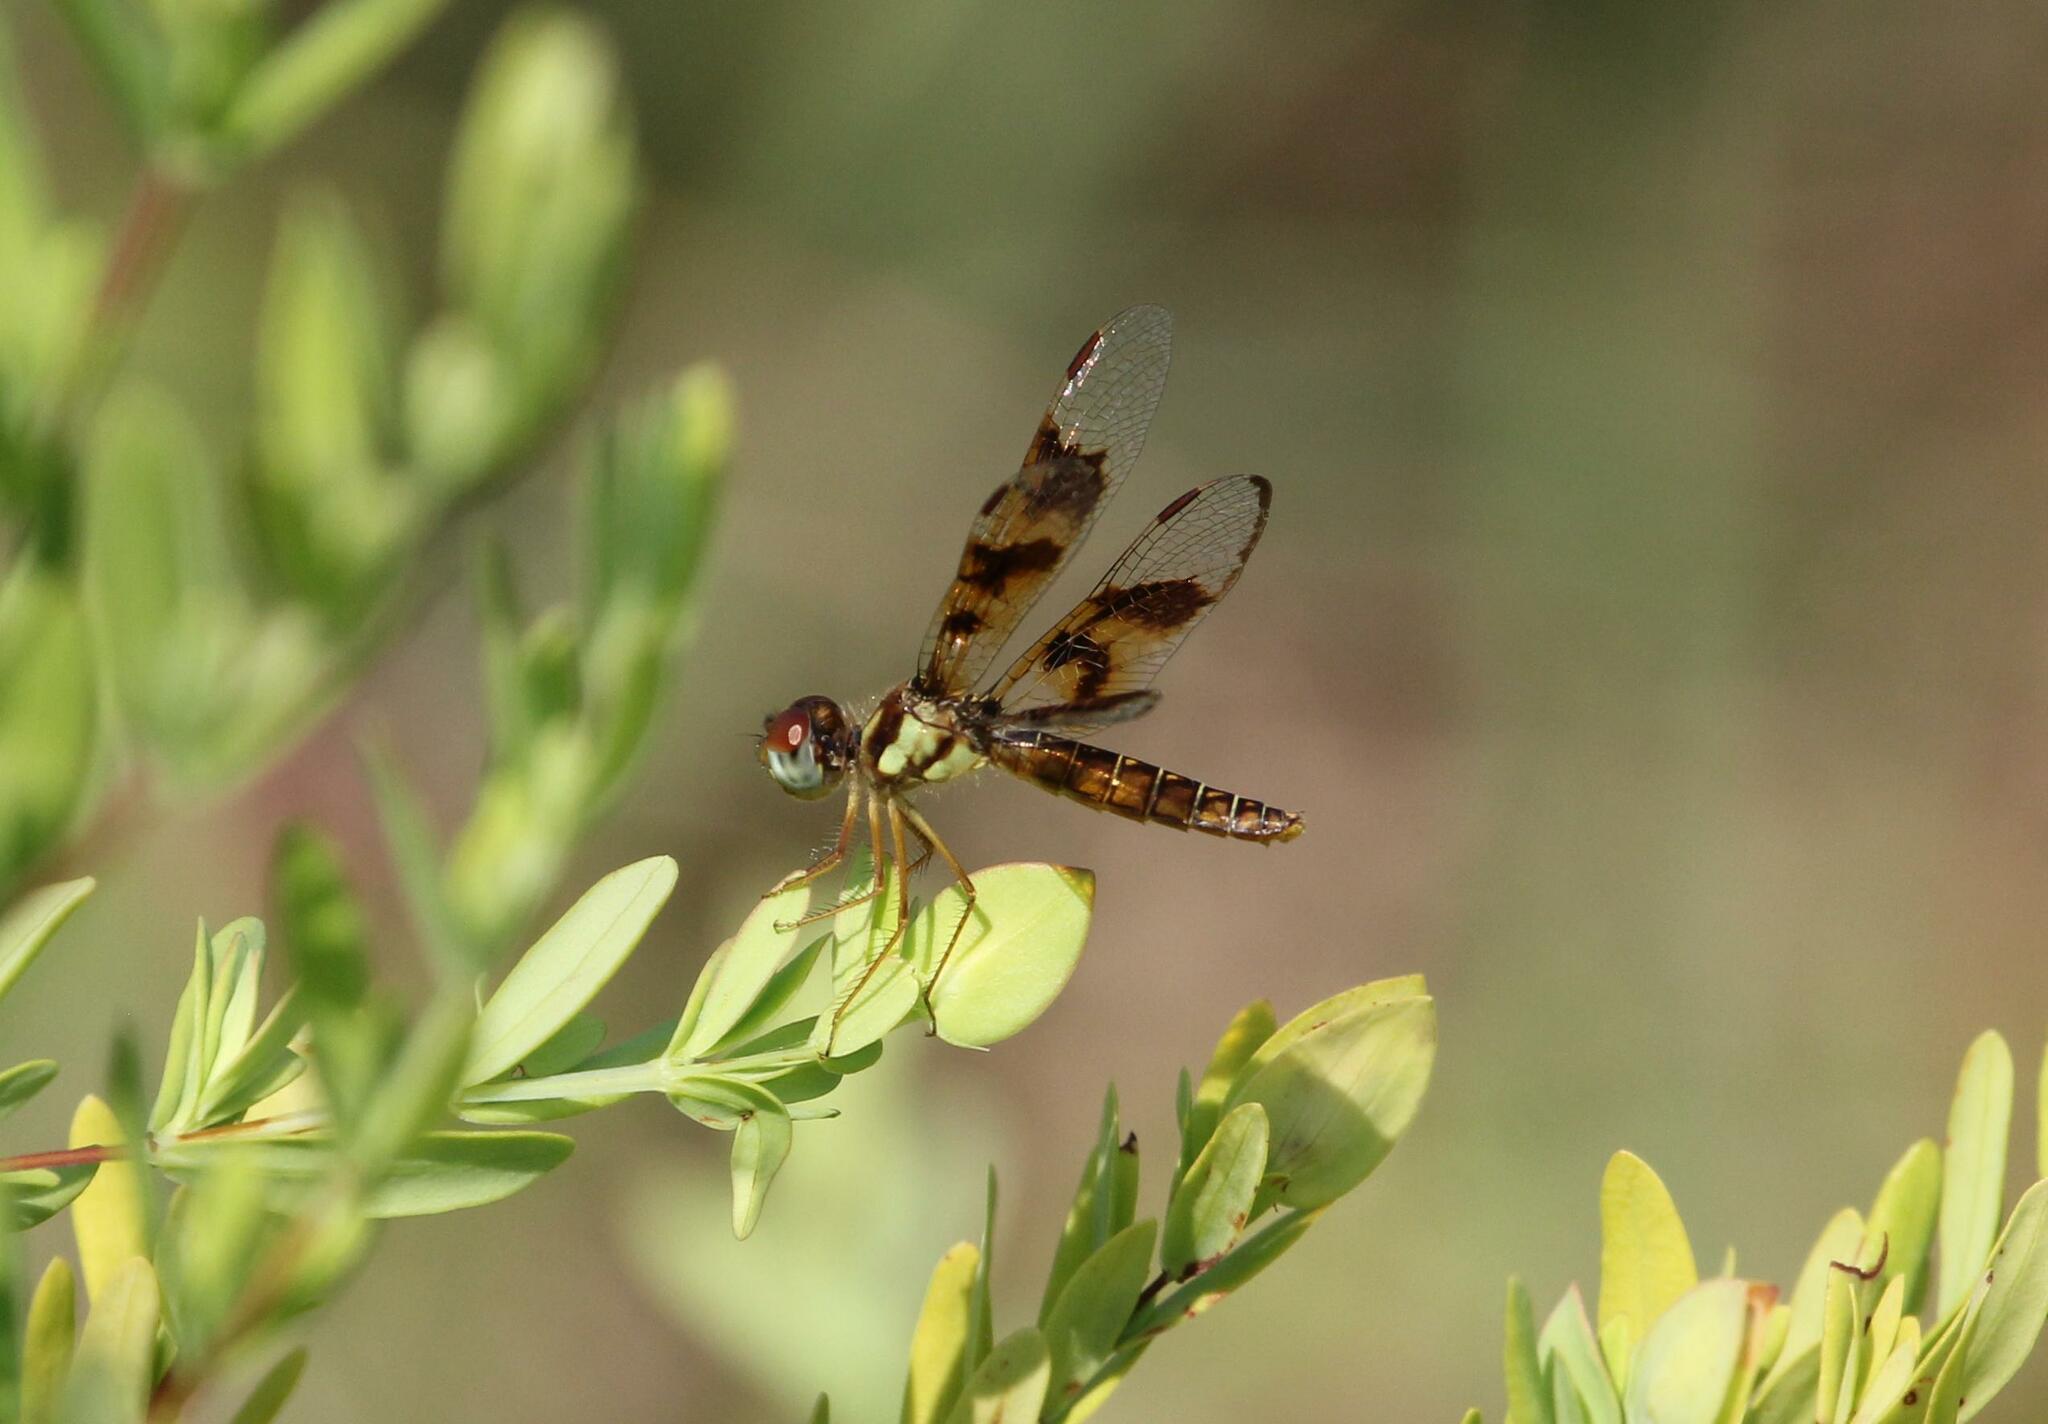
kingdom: Animalia
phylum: Arthropoda
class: Insecta
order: Odonata
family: Libellulidae
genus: Perithemis
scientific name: Perithemis tenera
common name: Eastern amberwing
